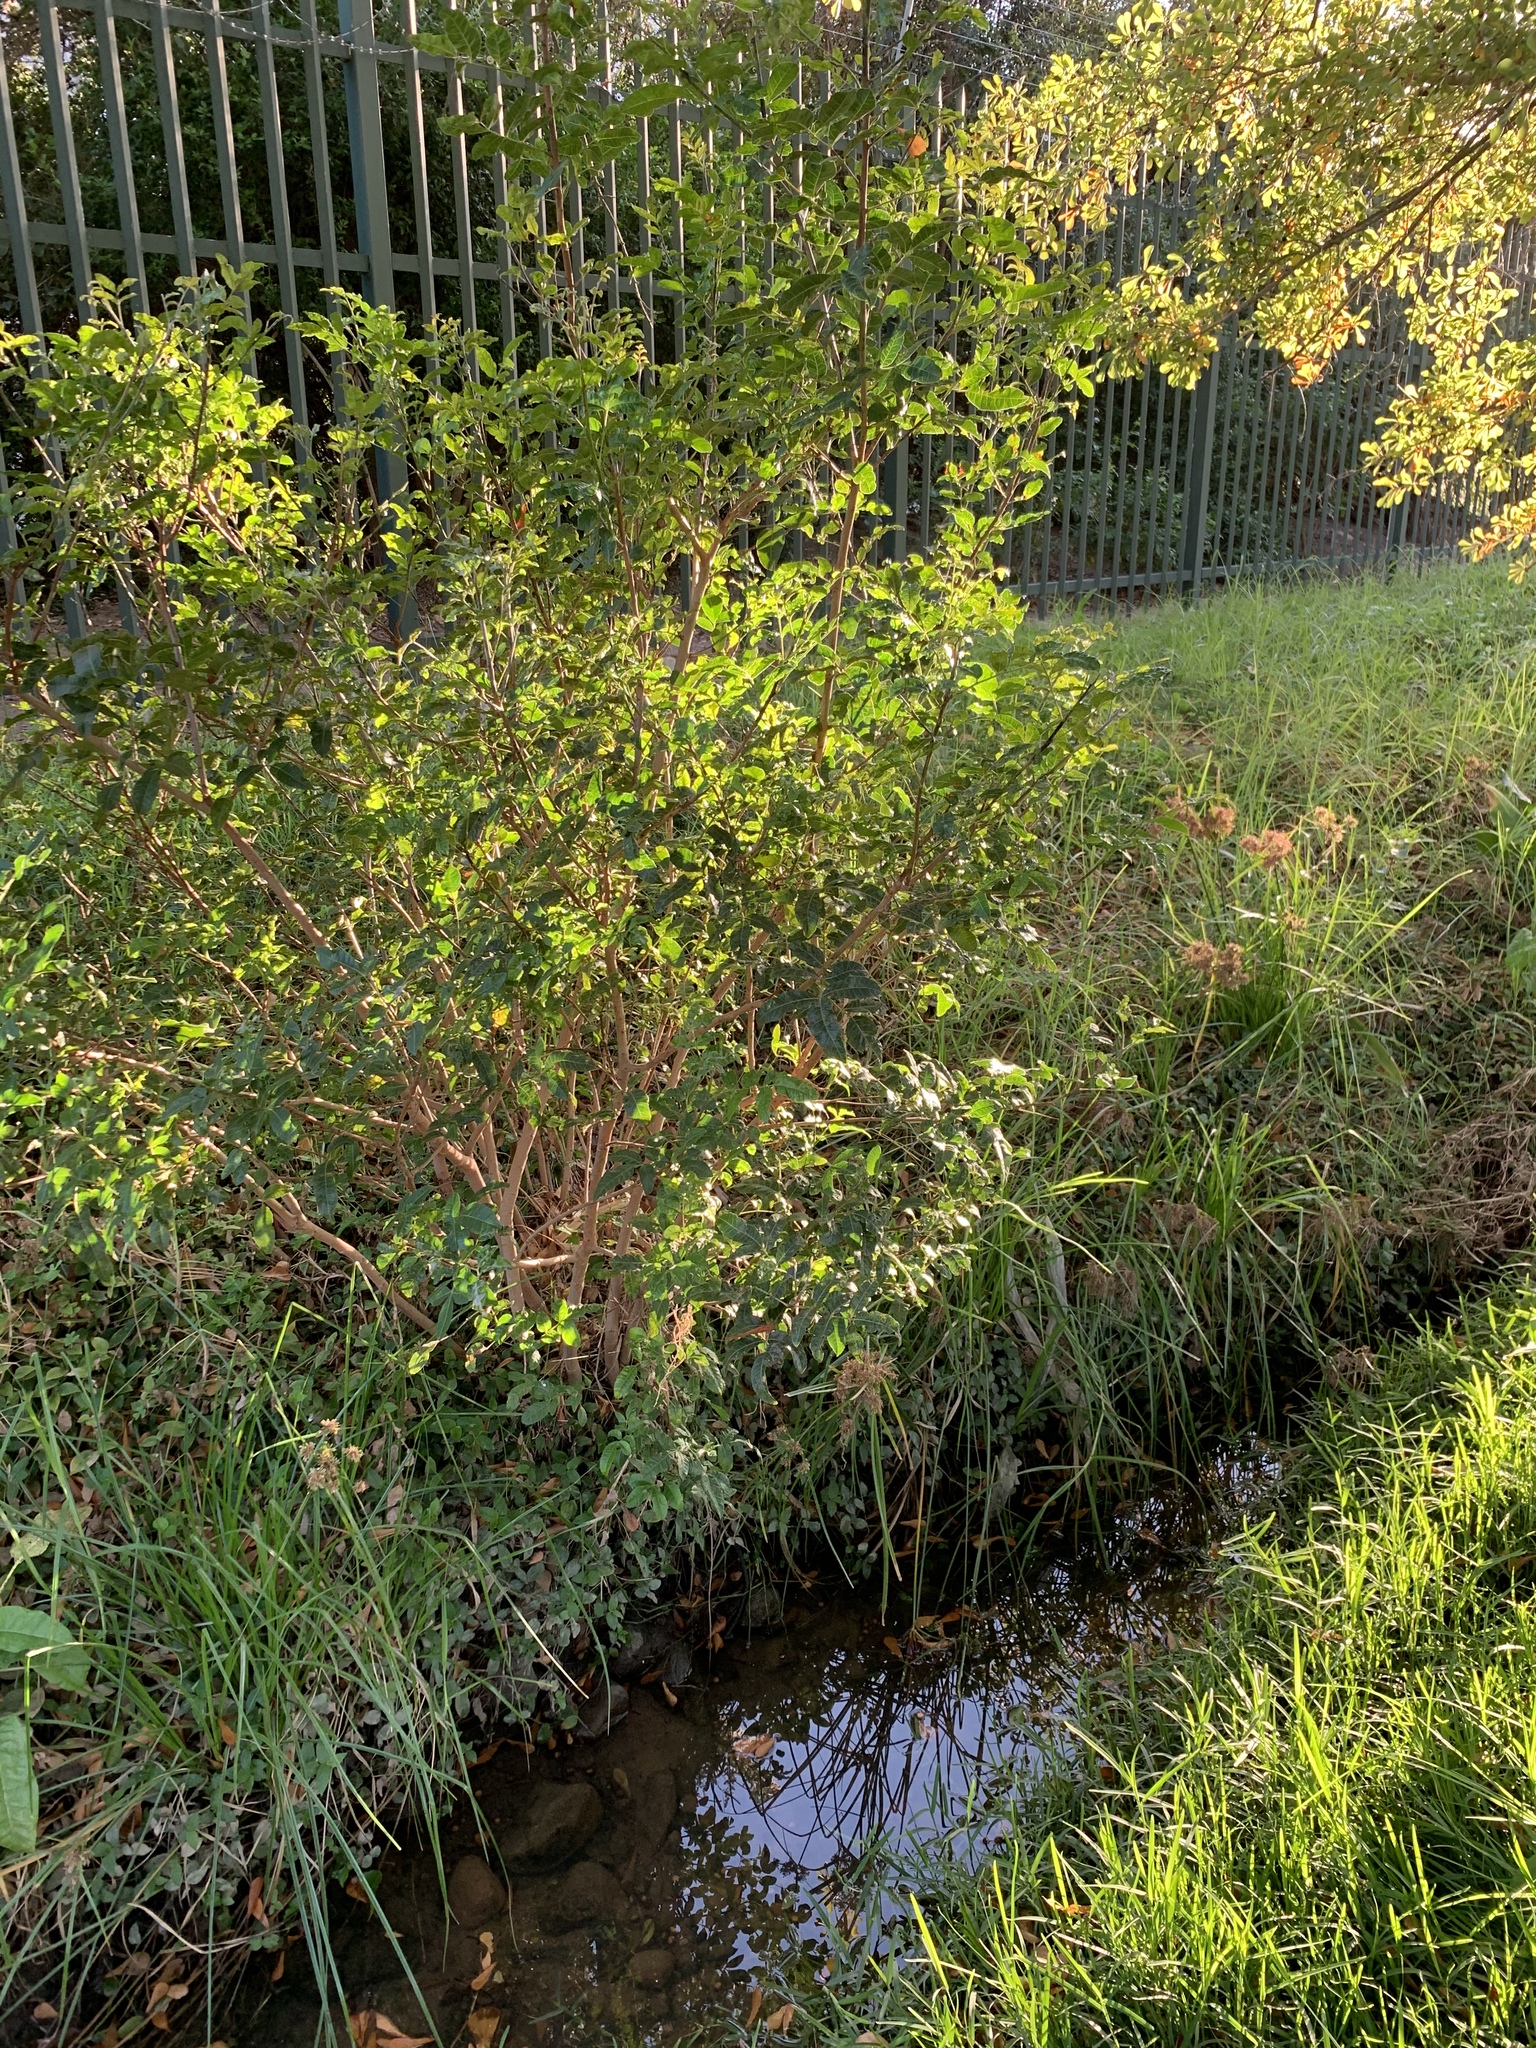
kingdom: Plantae
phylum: Tracheophyta
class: Magnoliopsida
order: Sapindales
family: Anacardiaceae
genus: Schinus
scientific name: Schinus terebinthifolia
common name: Brazilian peppertree
